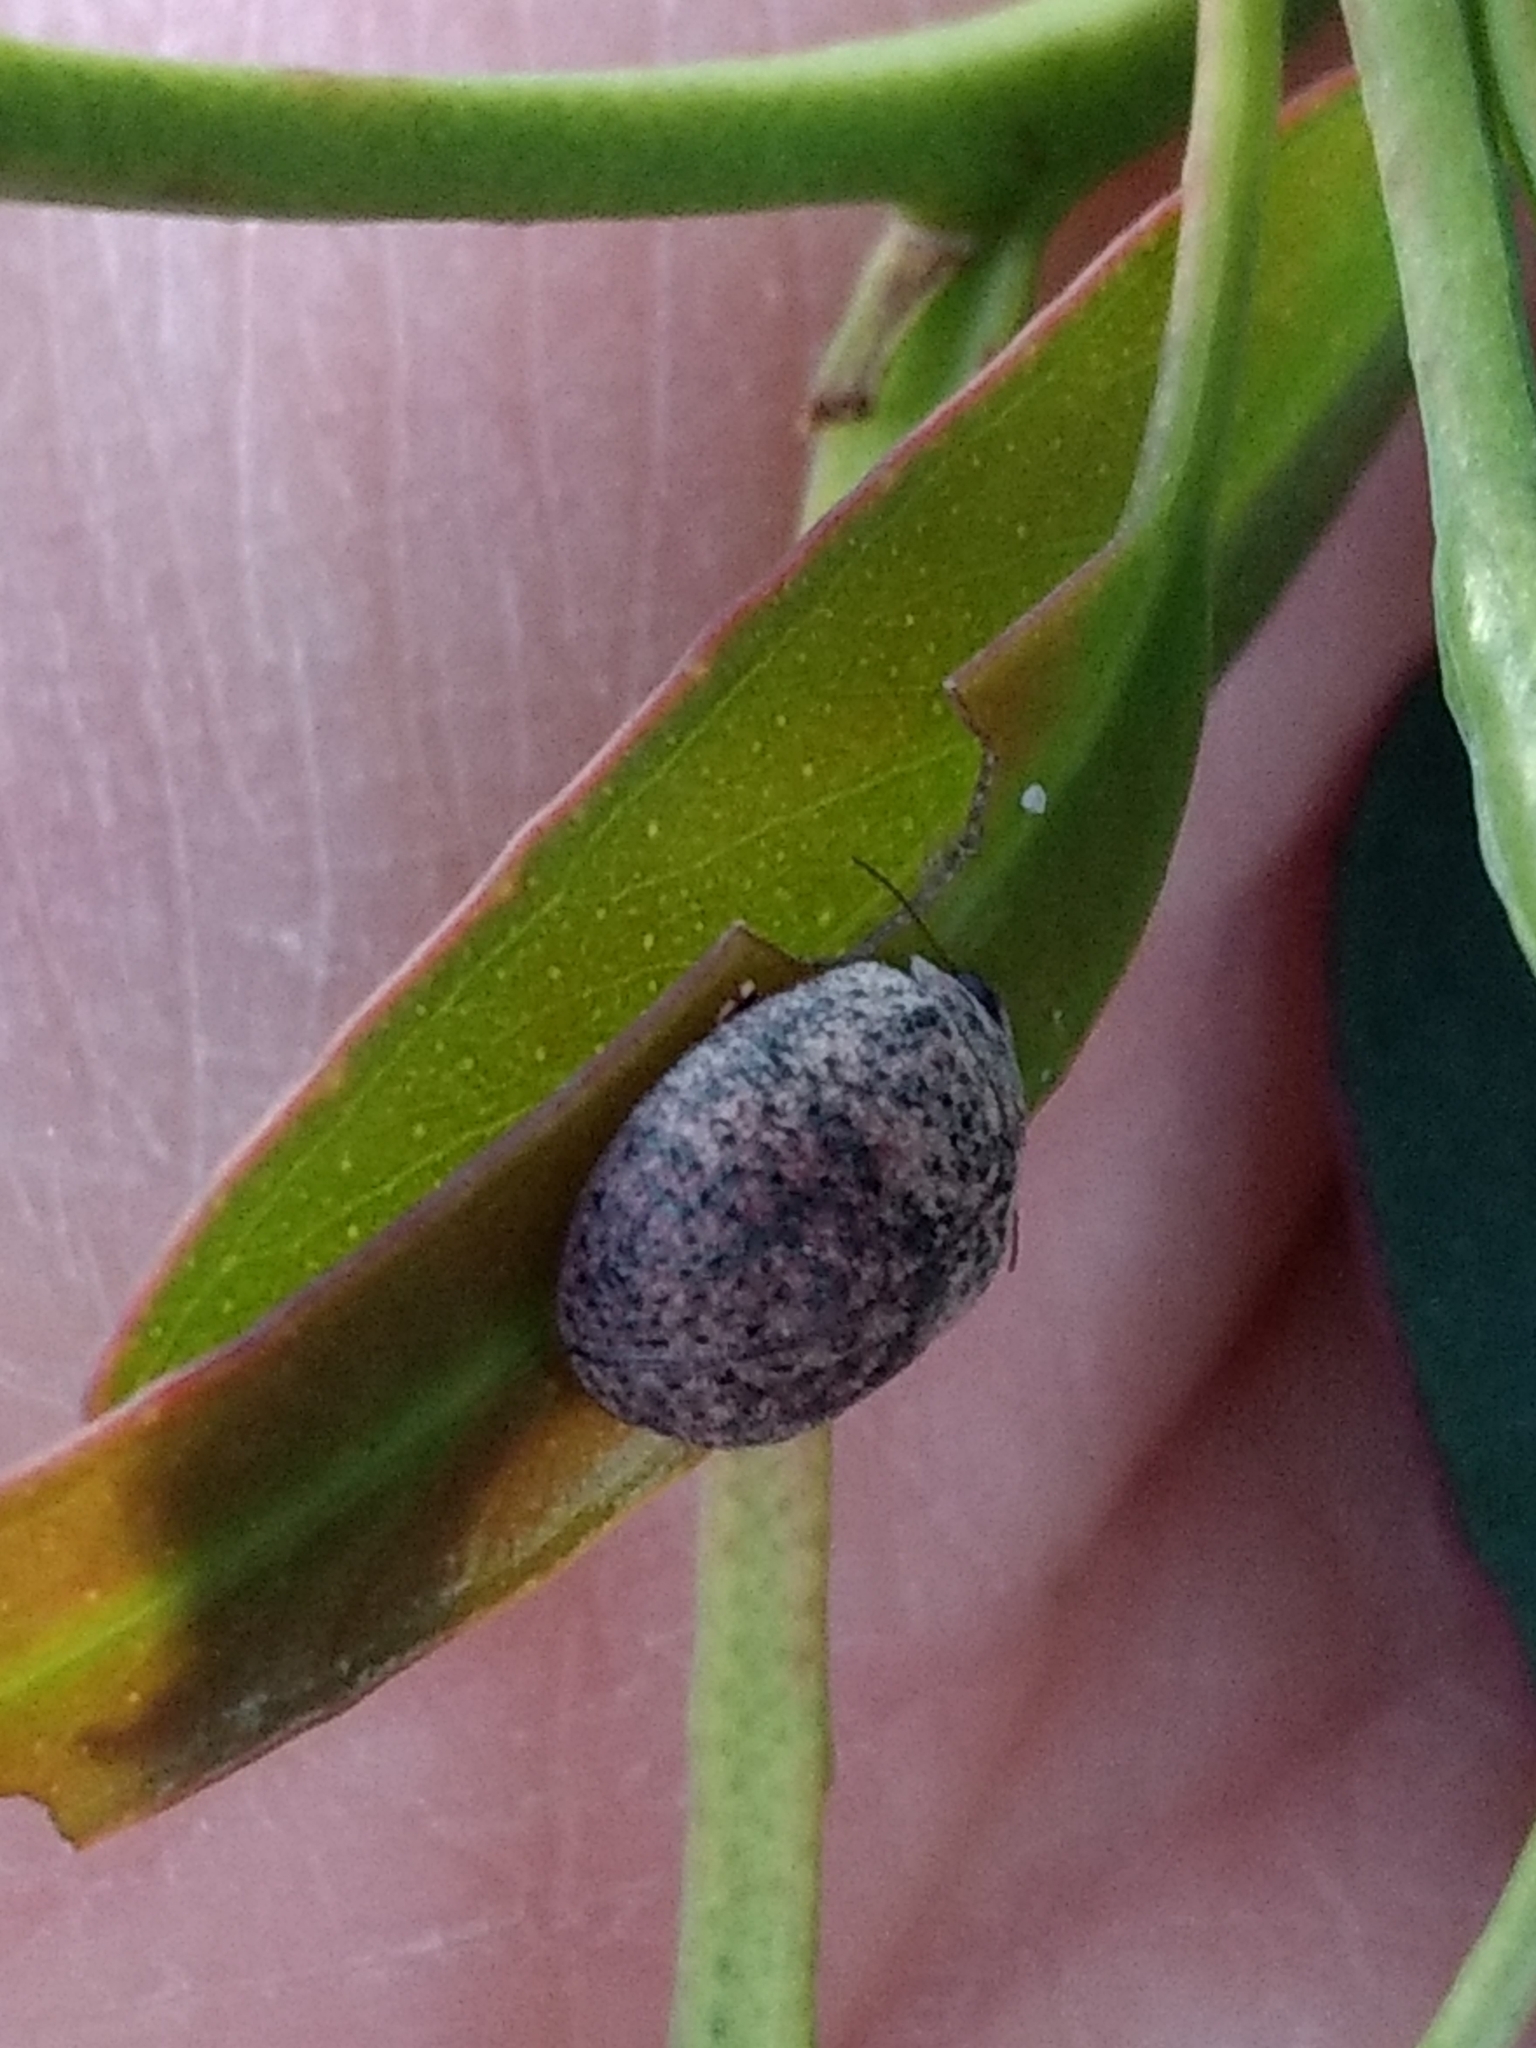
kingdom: Animalia
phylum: Arthropoda
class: Insecta
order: Coleoptera
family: Chrysomelidae
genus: Trachymela
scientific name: Trachymela sloanei
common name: Australian tortoise beetle
